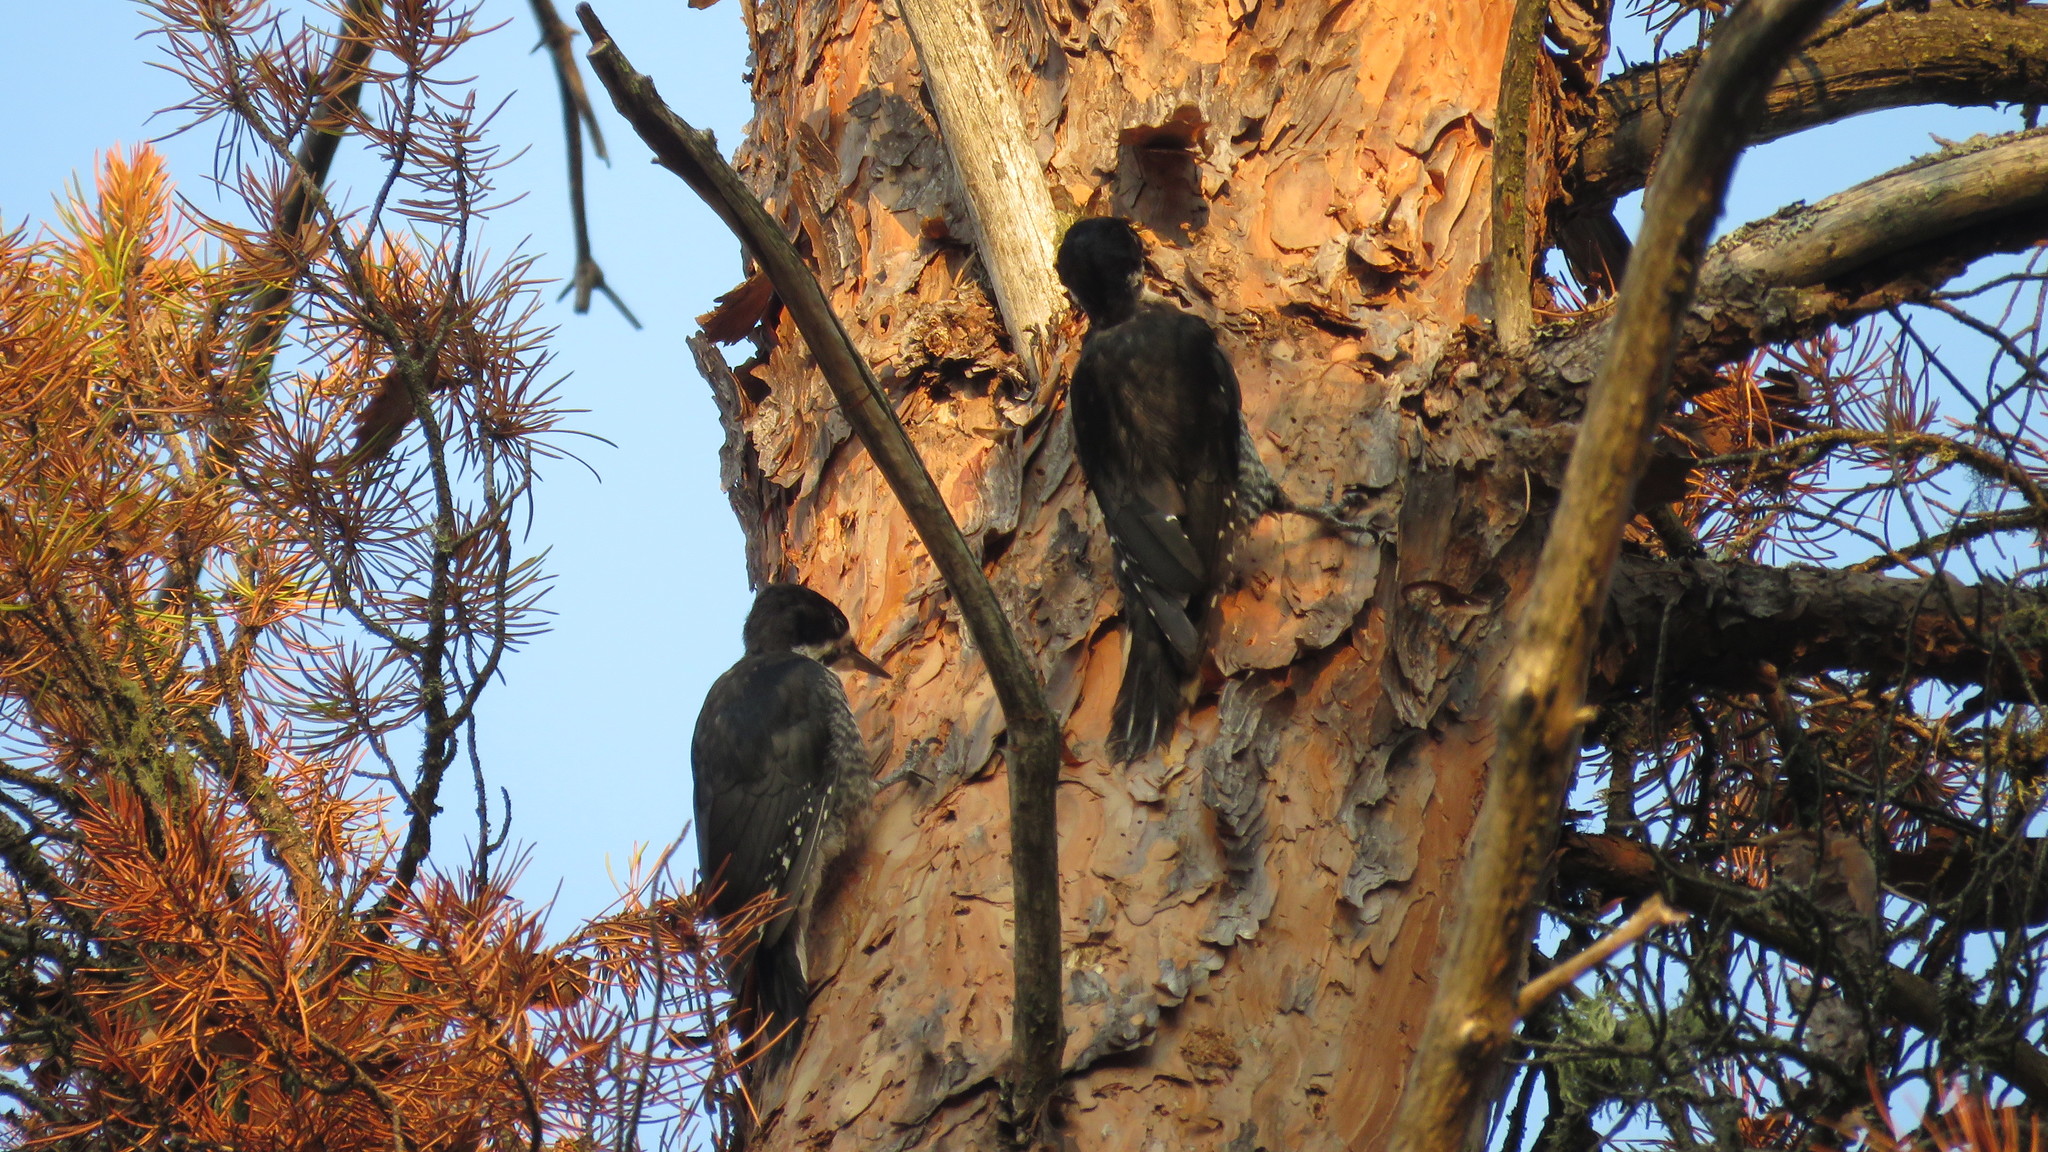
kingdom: Animalia
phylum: Chordata
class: Aves
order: Piciformes
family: Picidae
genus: Picoides
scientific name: Picoides arcticus
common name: Black-backed woodpecker
